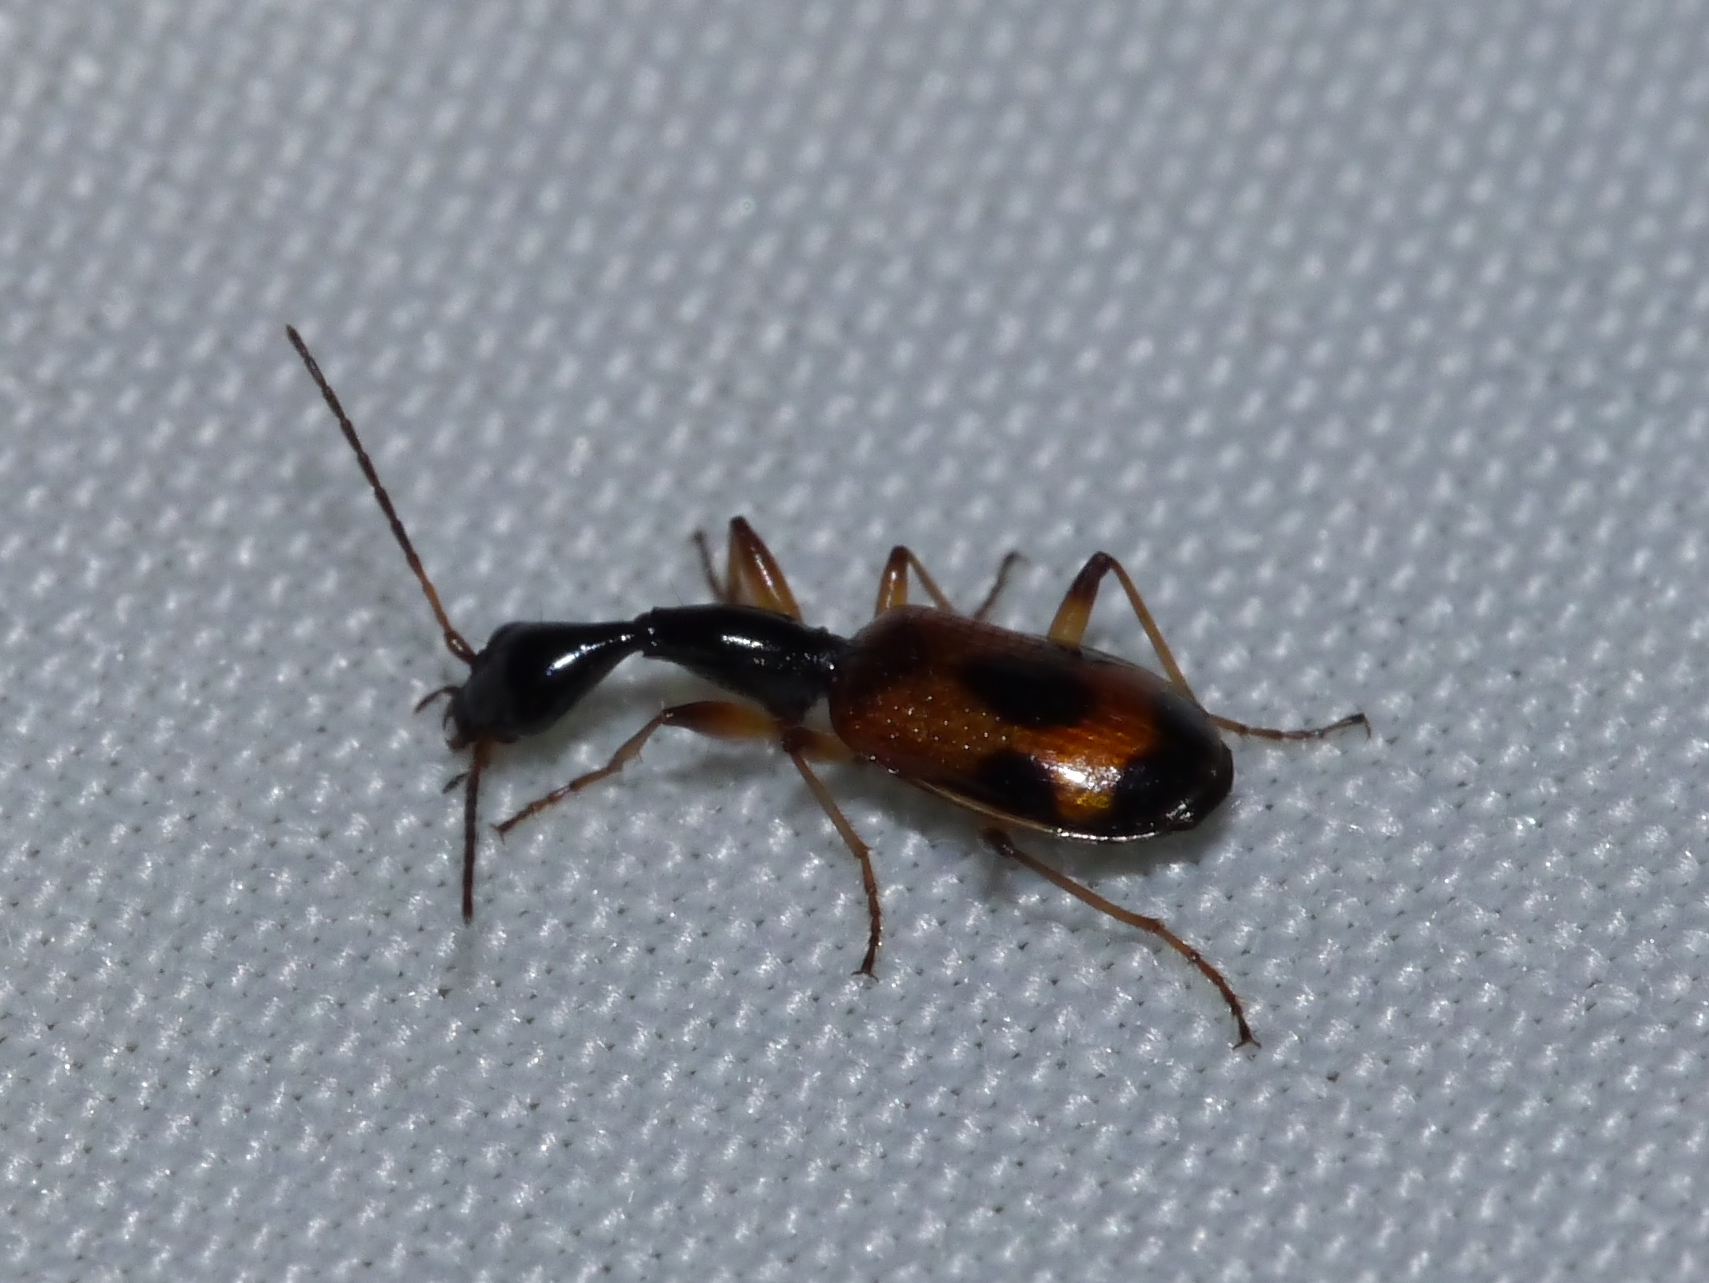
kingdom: Animalia
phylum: Arthropoda
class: Insecta
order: Coleoptera
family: Carabidae
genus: Colliuris
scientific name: Colliuris pensylvanica
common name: Long-necked ground beetle
